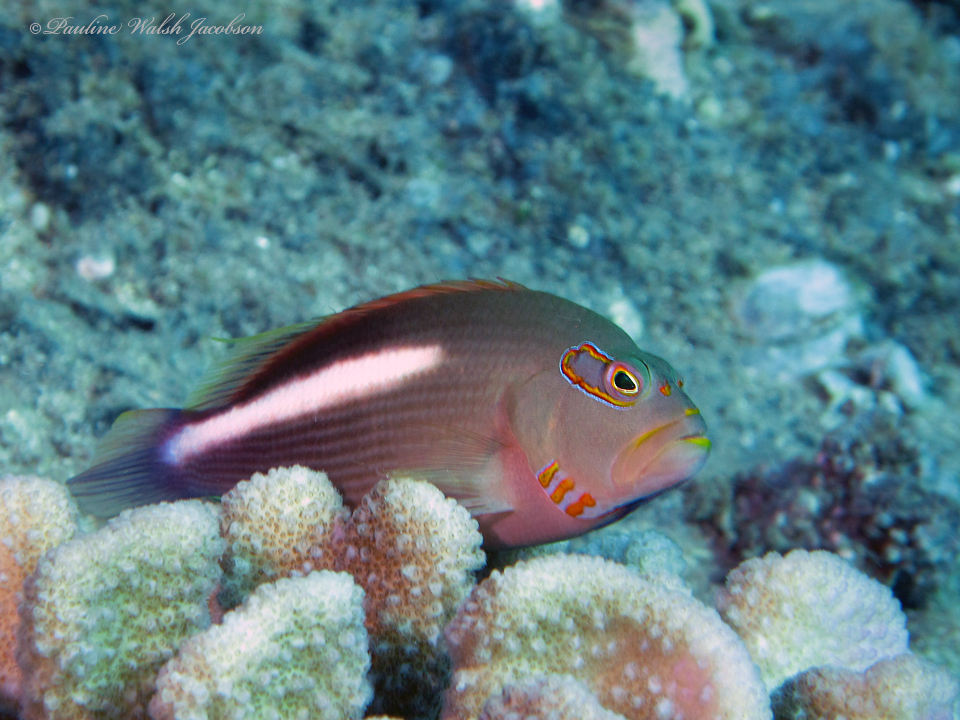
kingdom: Animalia
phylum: Chordata
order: Perciformes
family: Cirrhitidae
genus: Paracirrhites
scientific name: Paracirrhites arcatus
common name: Arc-eye hawkfish
